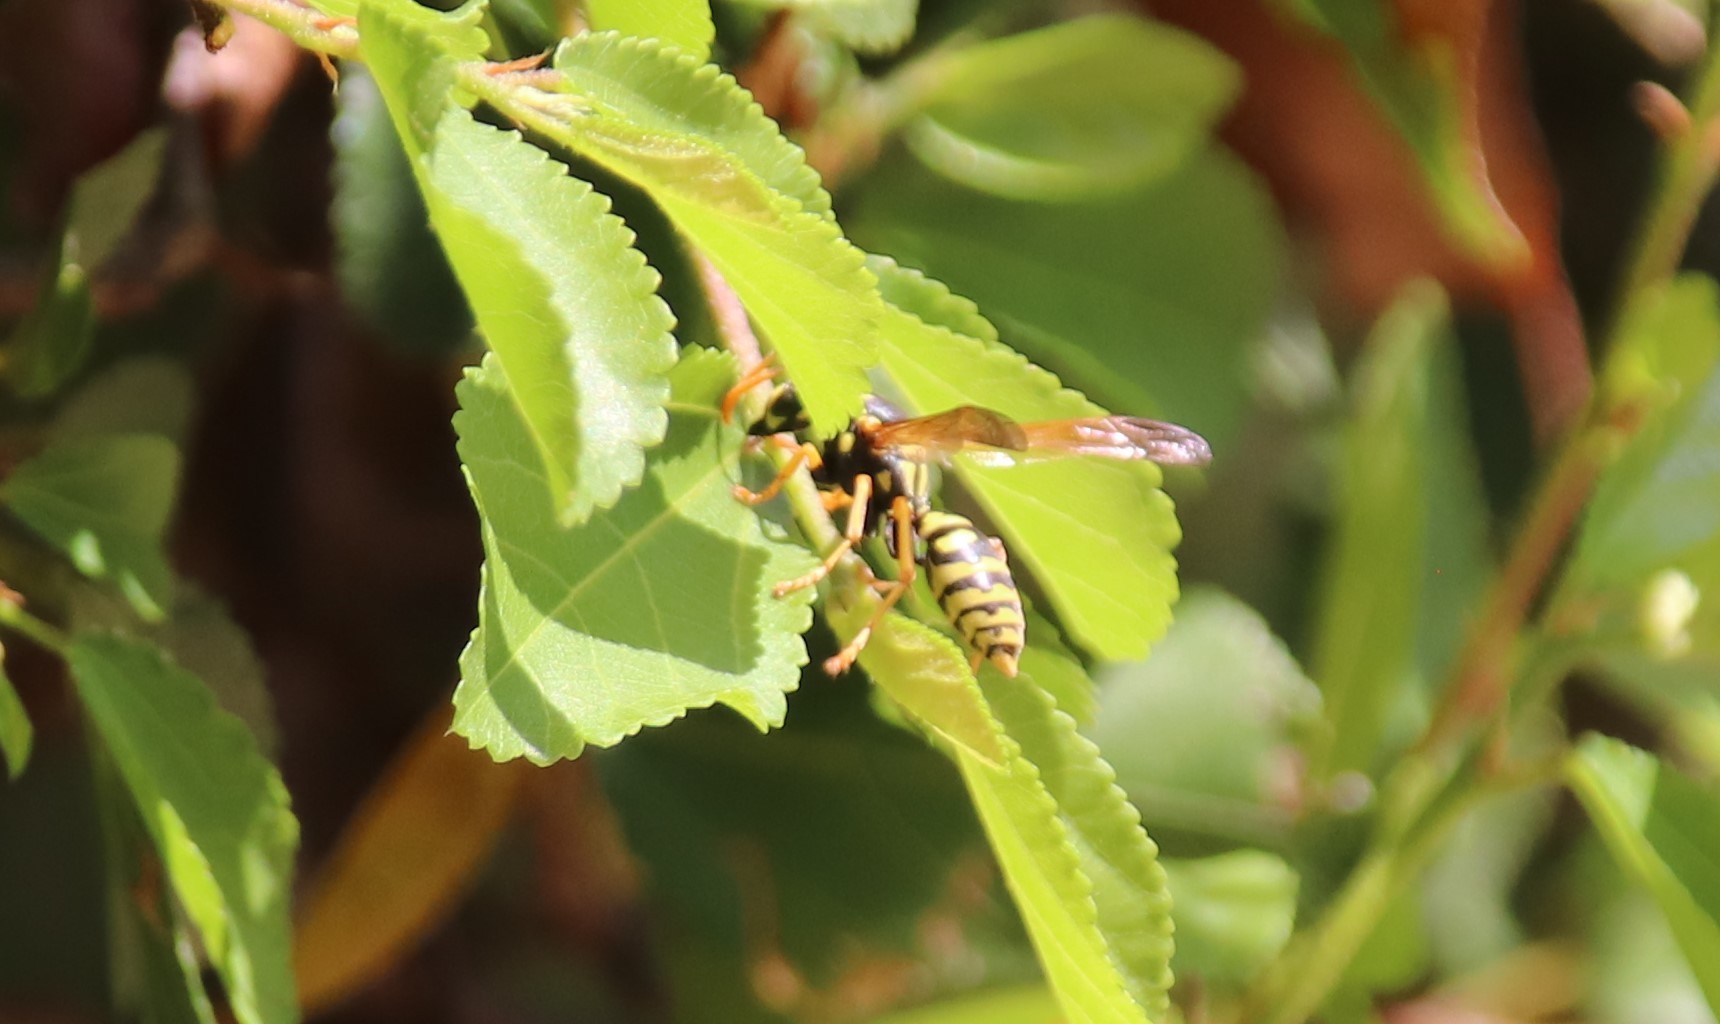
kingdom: Animalia
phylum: Arthropoda
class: Insecta
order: Hymenoptera
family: Eumenidae
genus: Polistes
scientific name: Polistes dominula
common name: Paper wasp
